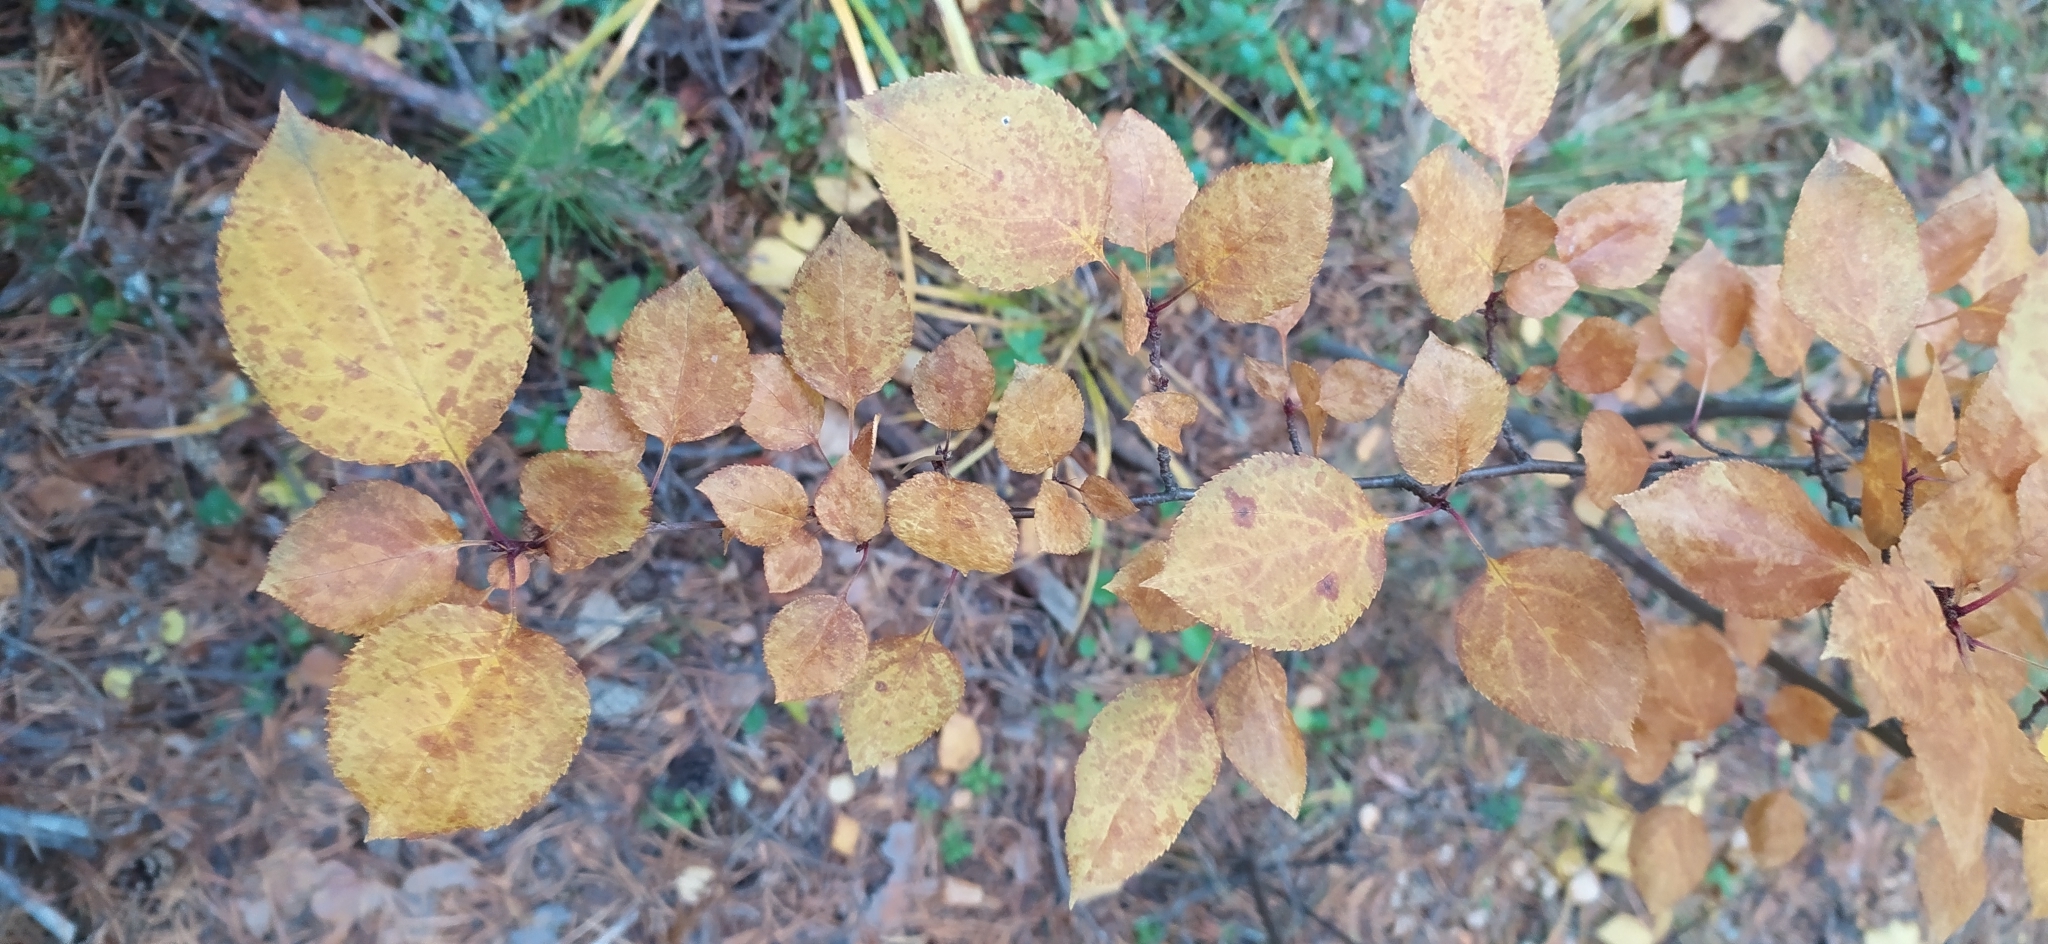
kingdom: Plantae
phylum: Tracheophyta
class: Magnoliopsida
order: Rosales
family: Rosaceae
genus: Malus
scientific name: Malus baccata
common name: Siberian crab
